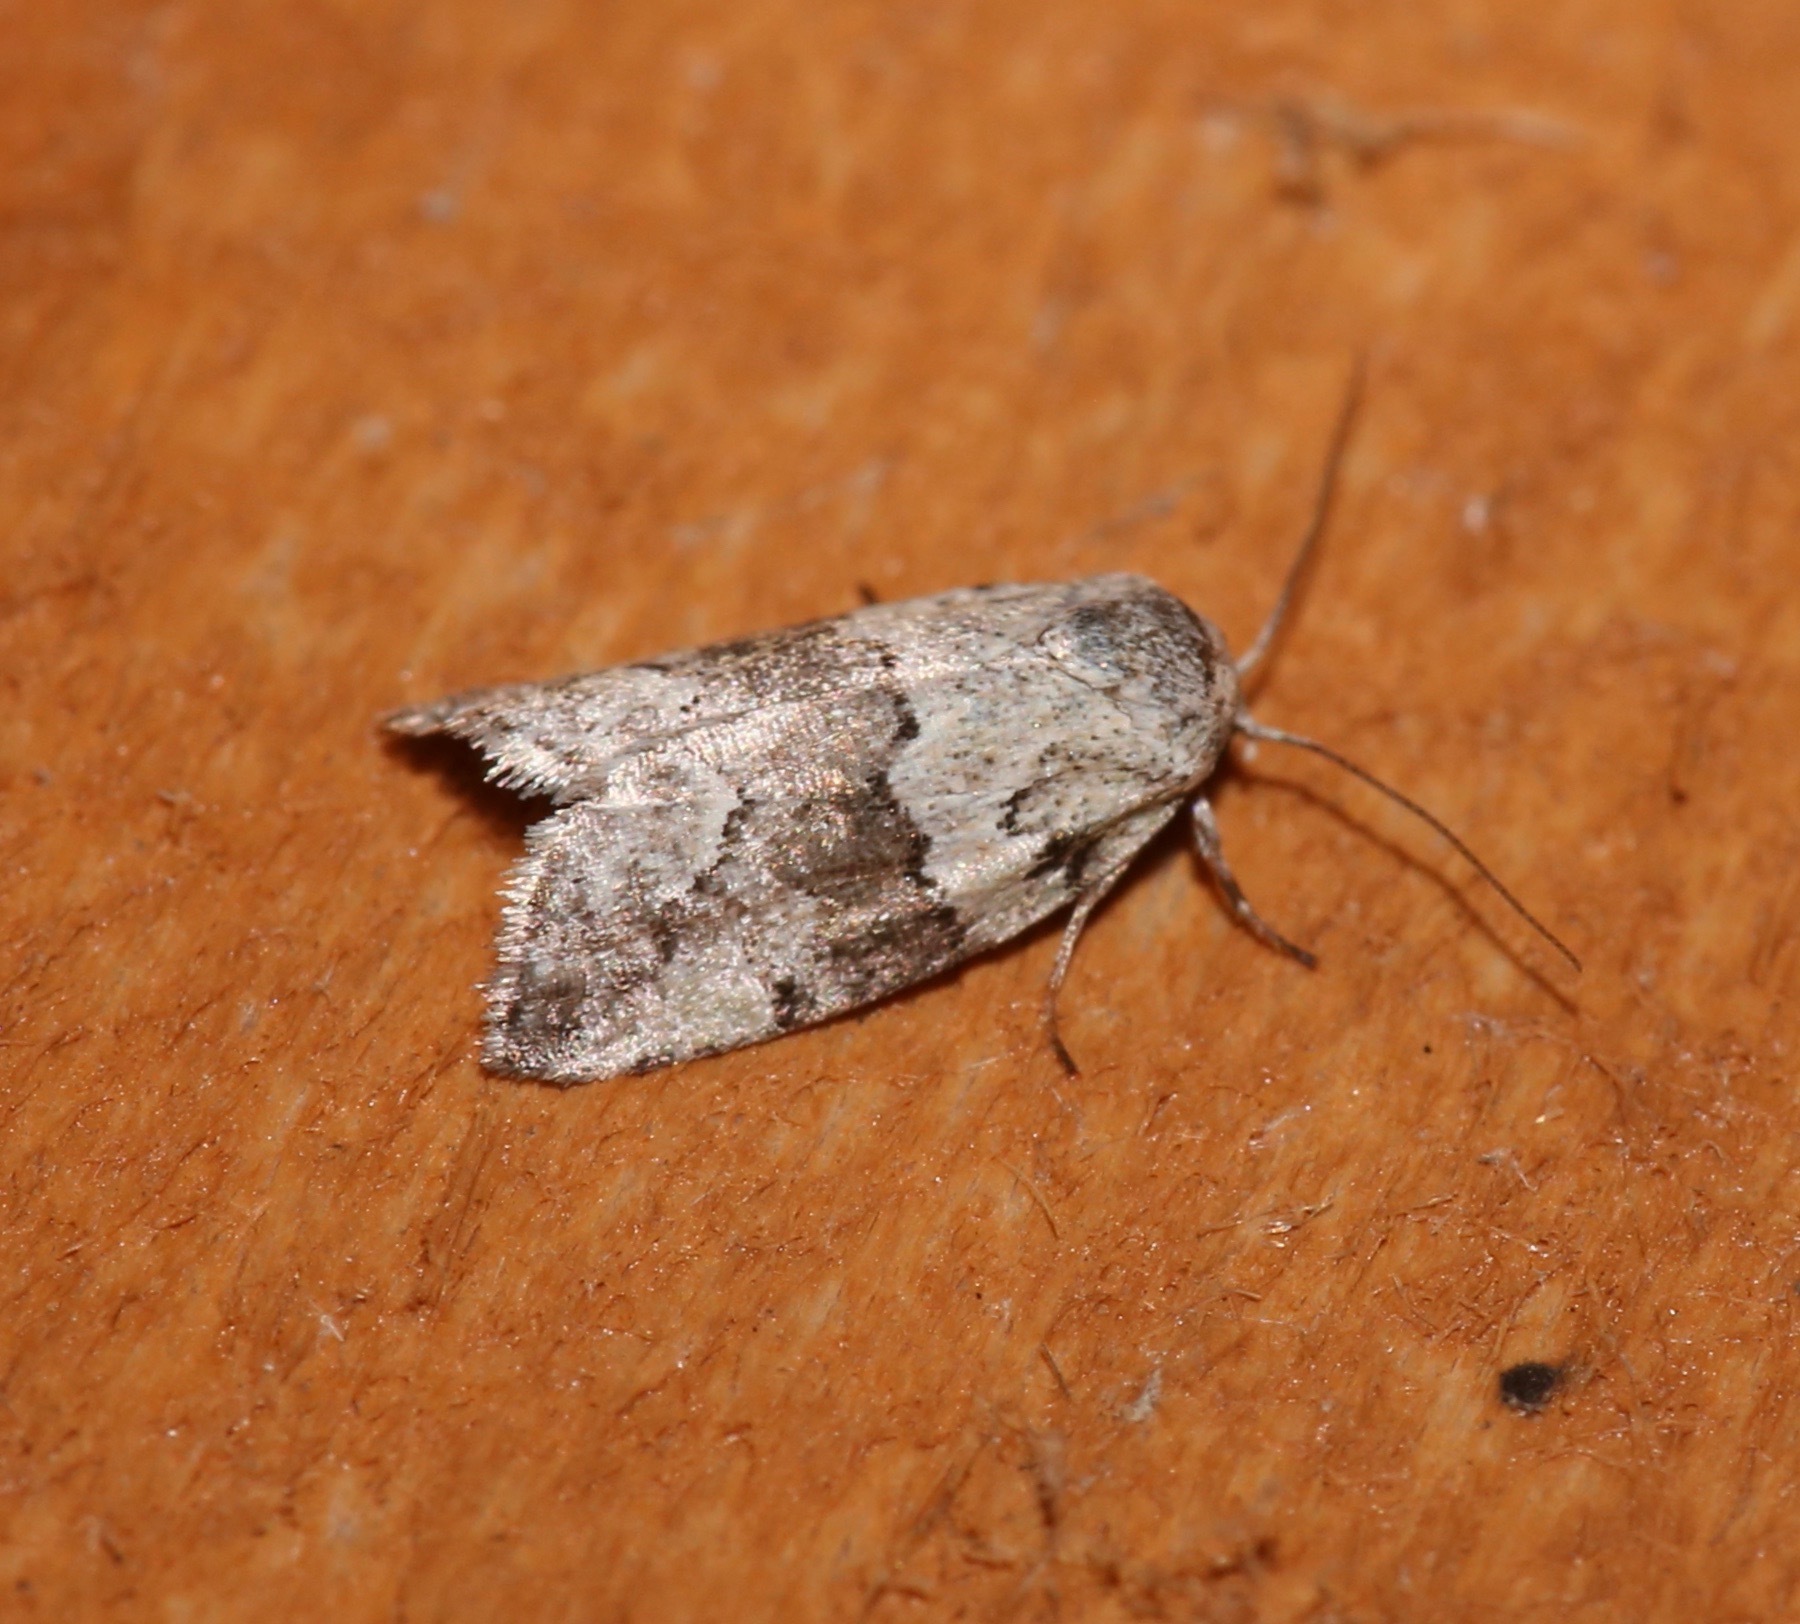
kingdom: Animalia
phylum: Arthropoda
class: Insecta
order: Lepidoptera
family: Nolidae
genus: Afrida
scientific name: Afrida ydatodes
